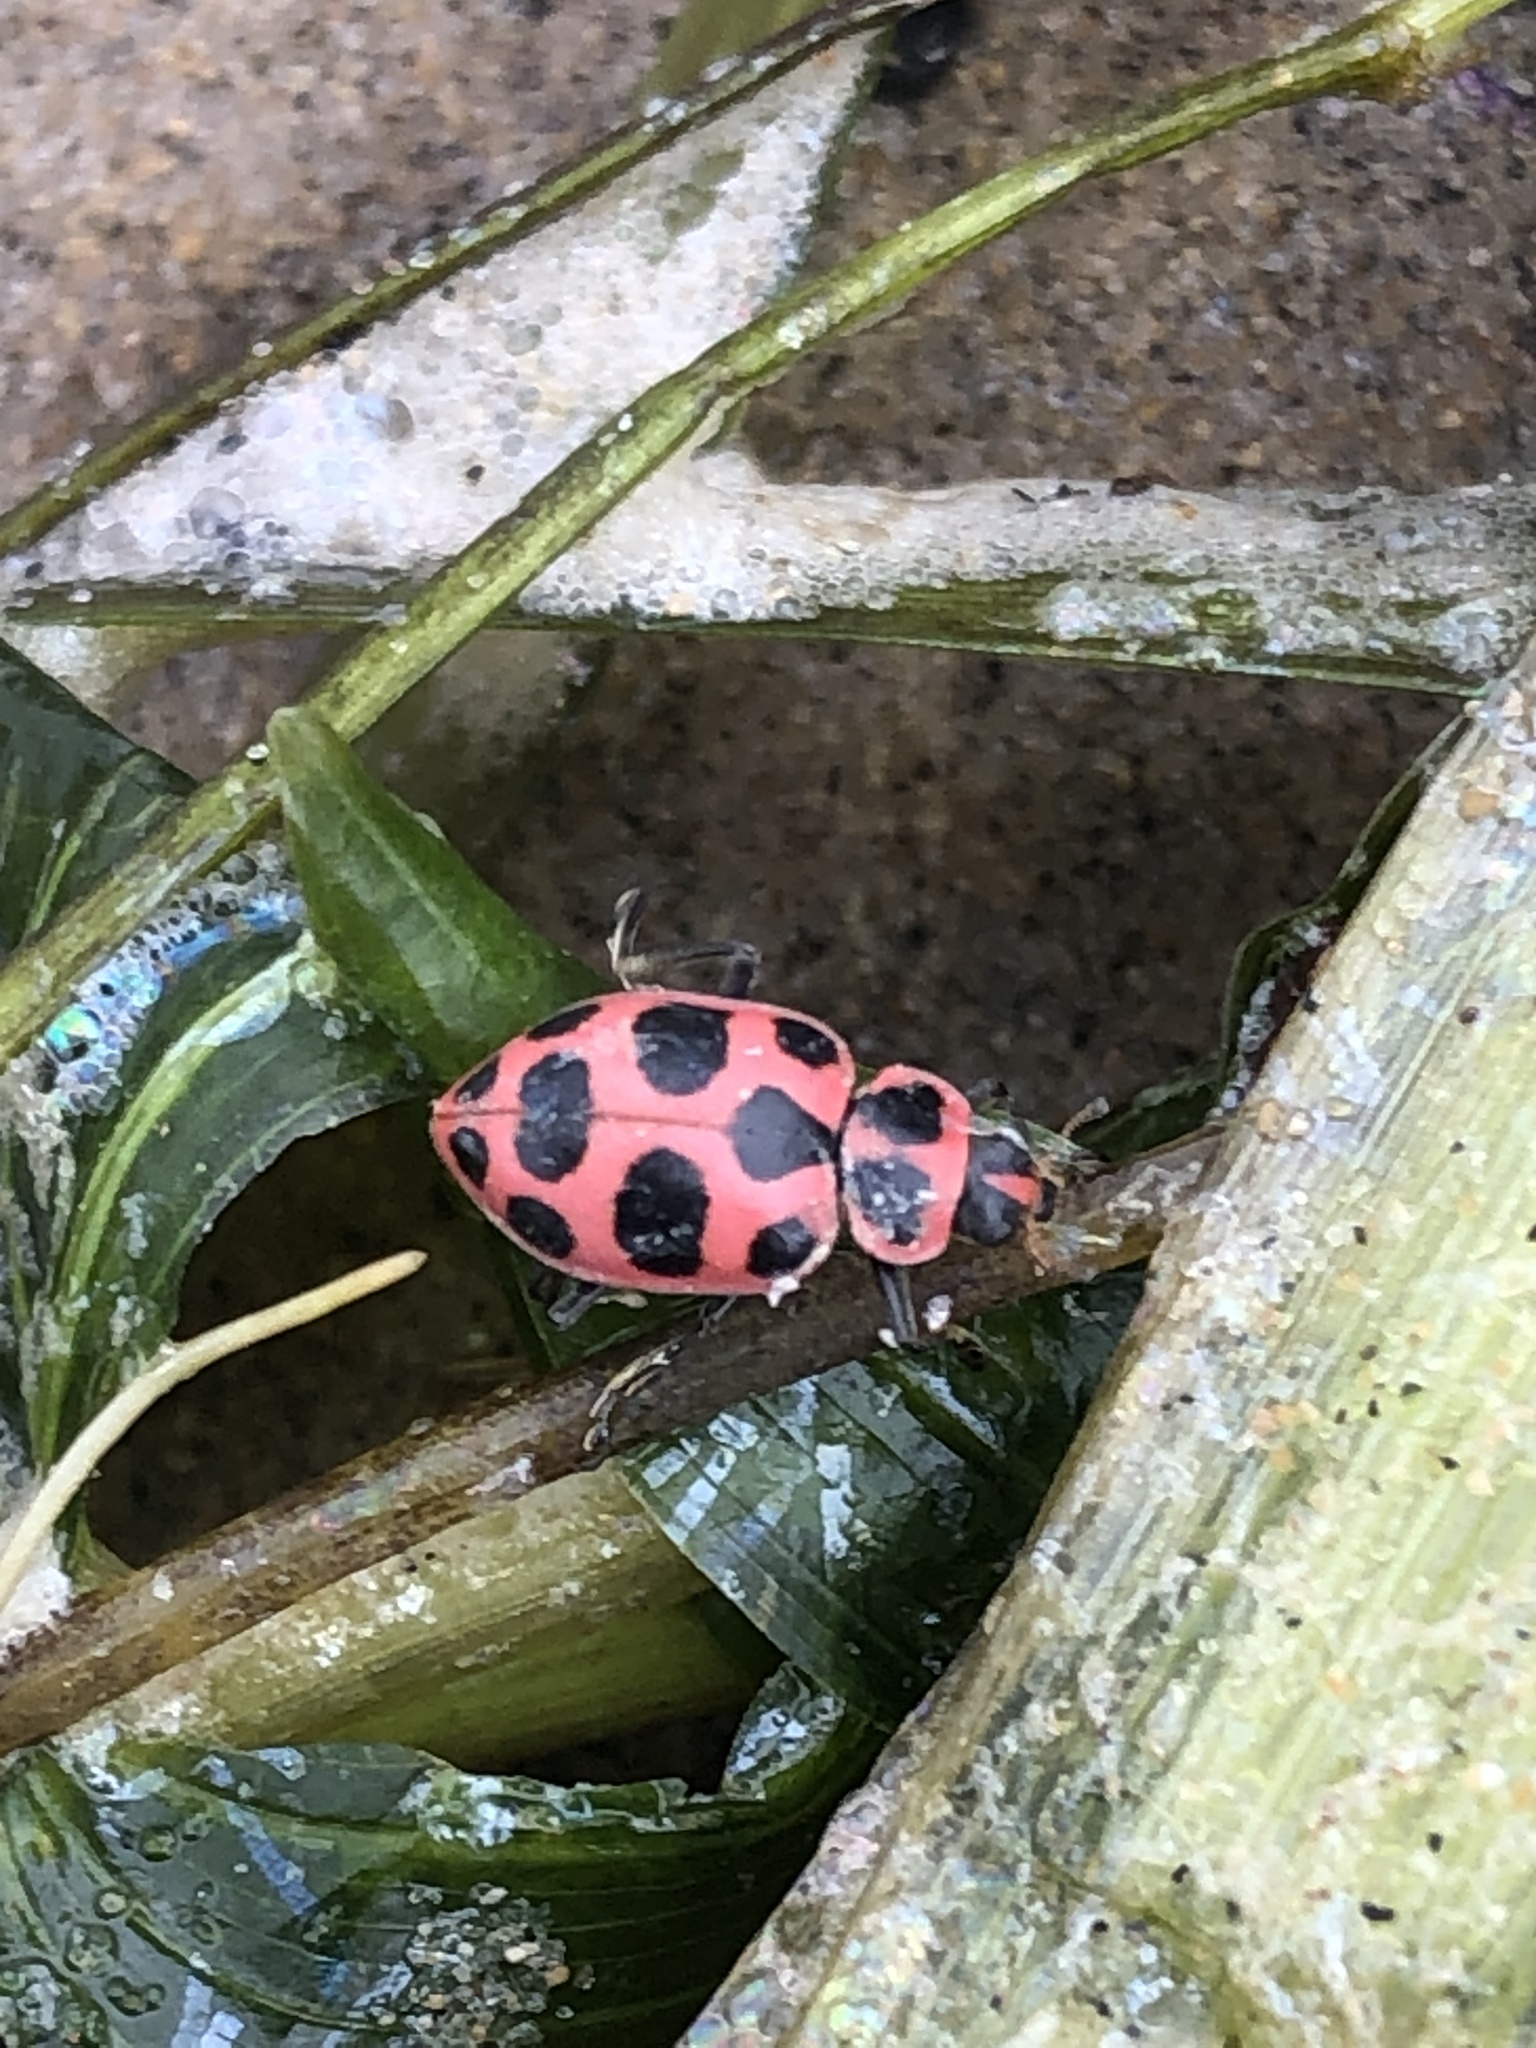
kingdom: Animalia
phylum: Arthropoda
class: Insecta
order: Coleoptera
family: Coccinellidae
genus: Coleomegilla
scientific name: Coleomegilla maculata
